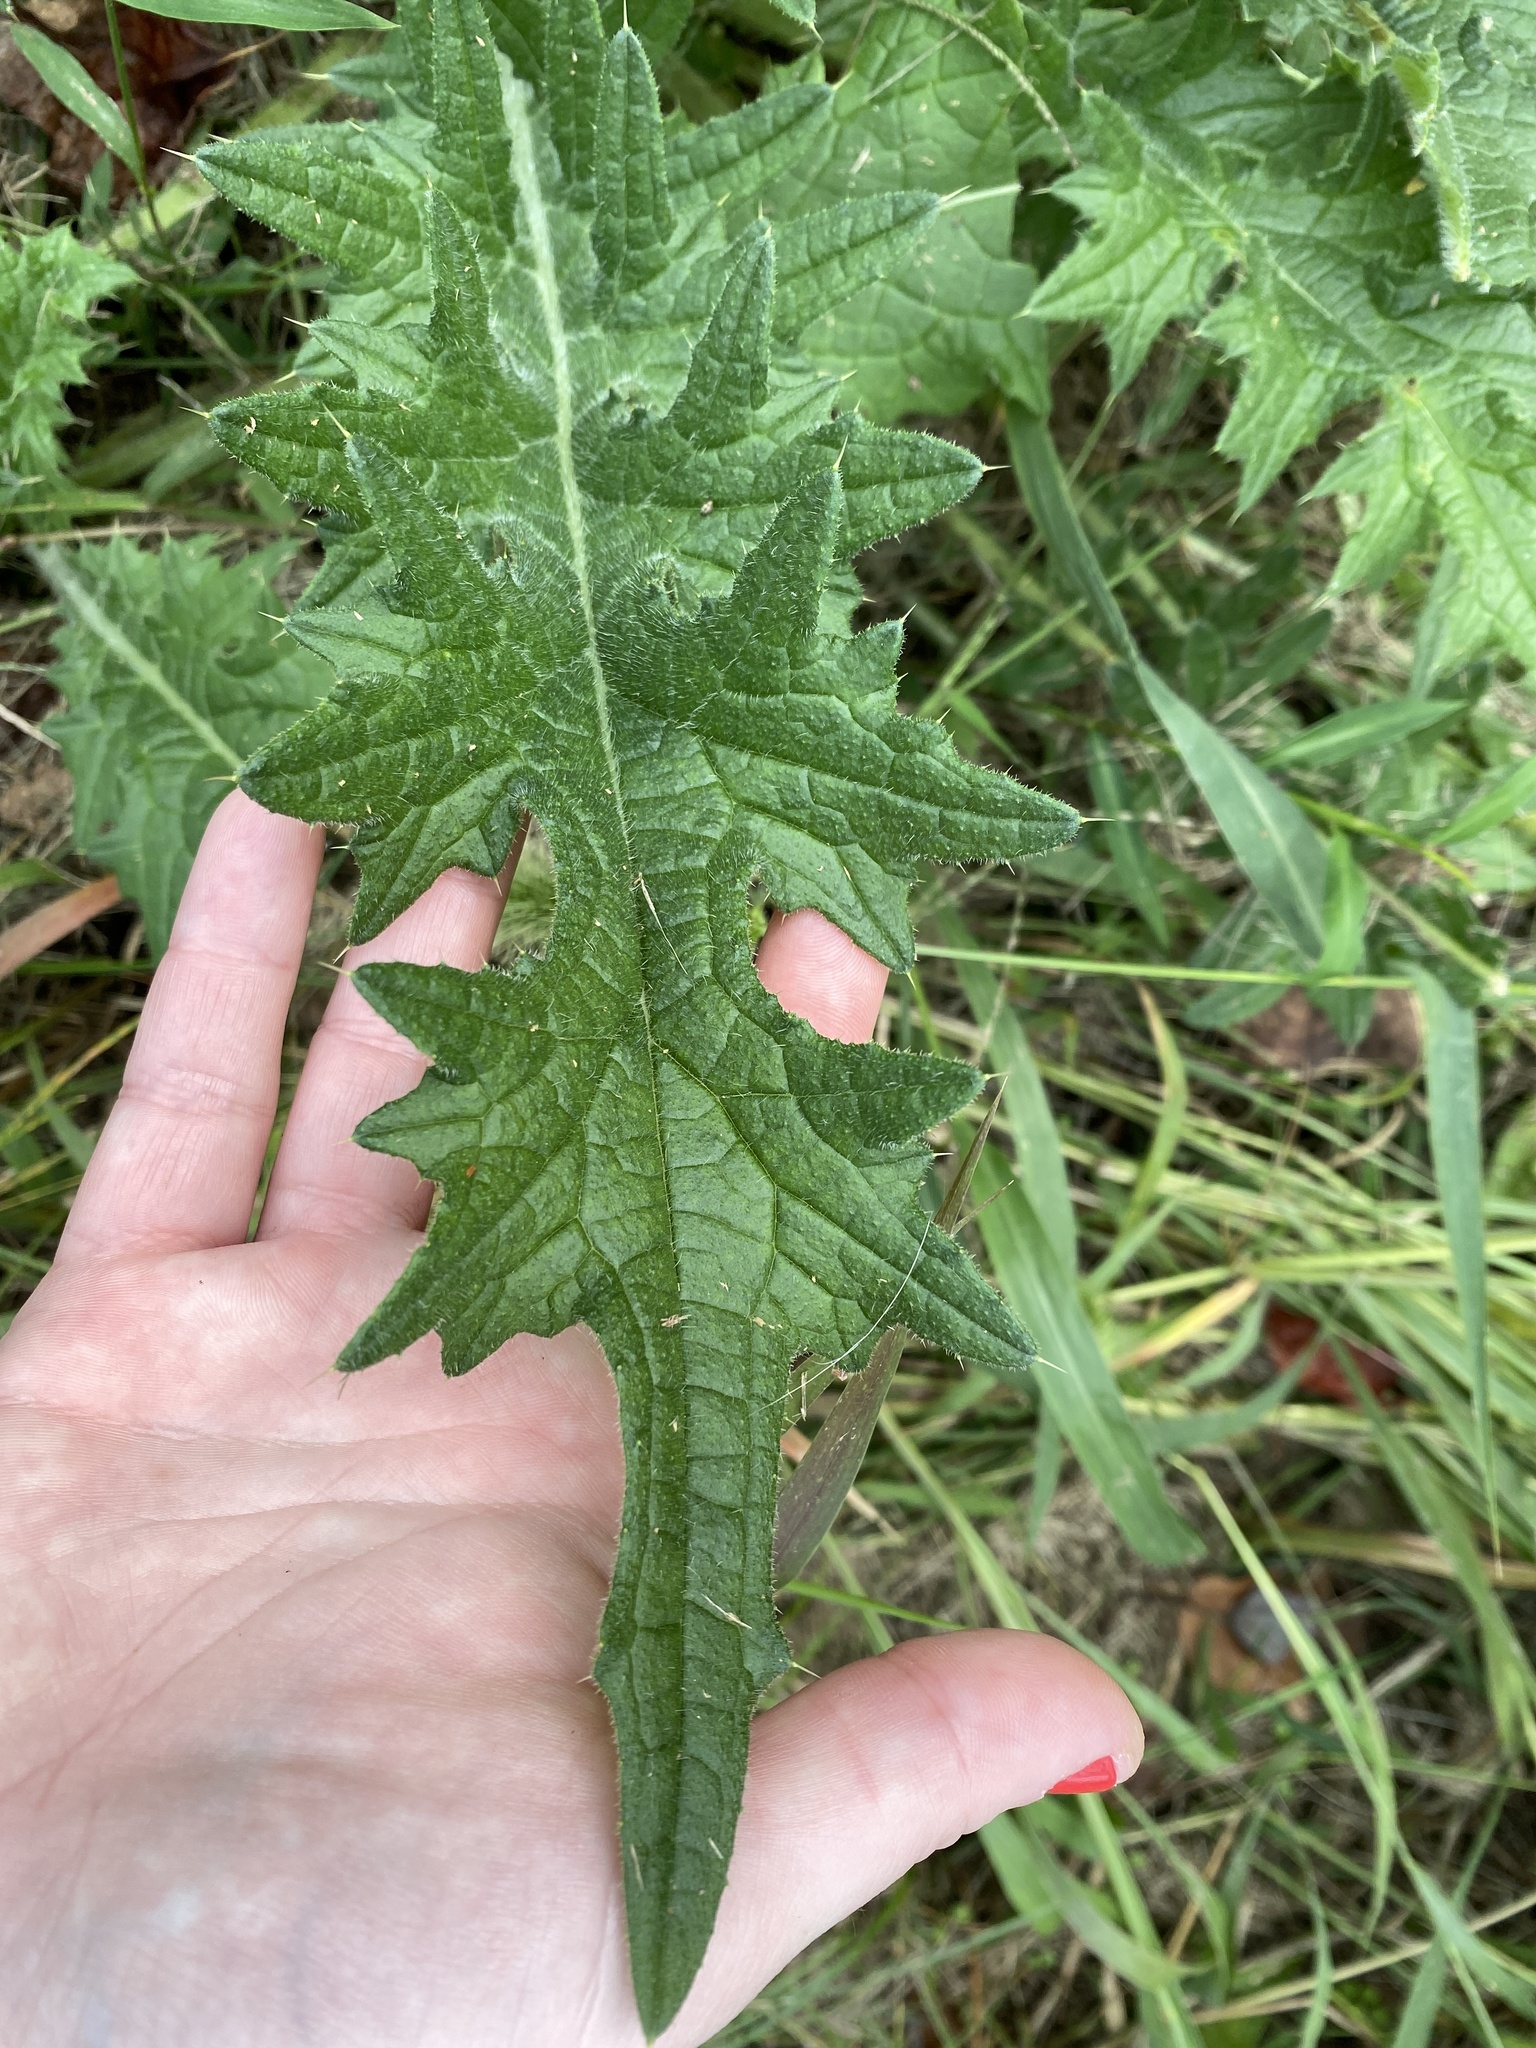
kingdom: Plantae
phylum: Tracheophyta
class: Magnoliopsida
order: Asterales
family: Asteraceae
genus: Cirsium
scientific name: Cirsium vulgare
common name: Bull thistle
